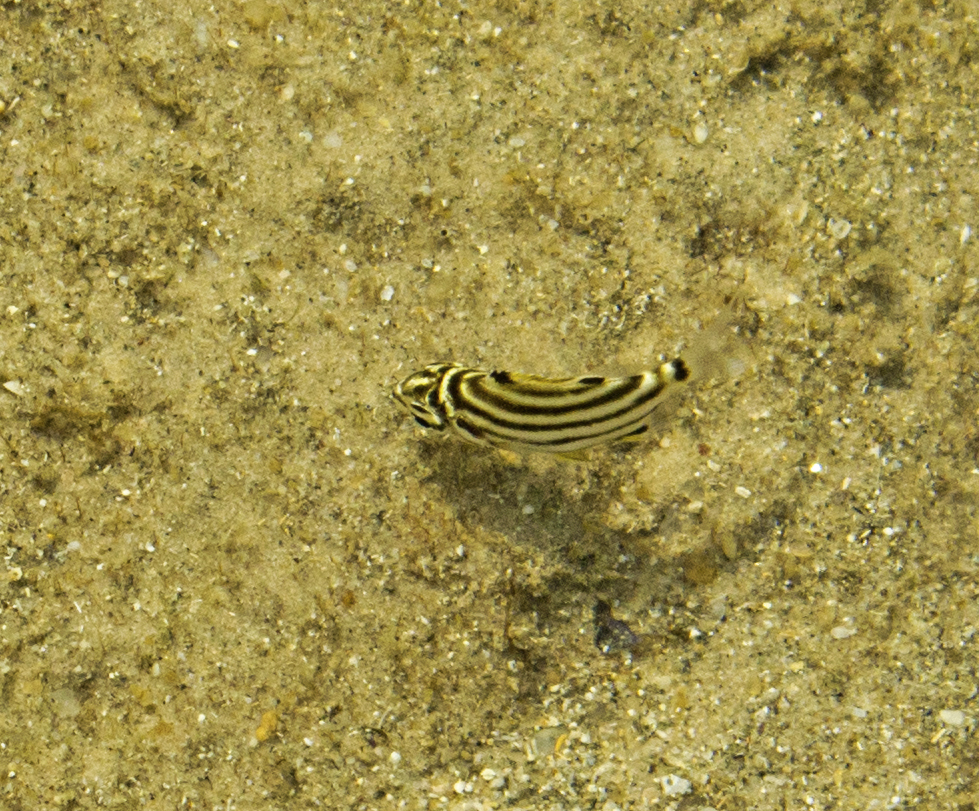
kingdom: Animalia
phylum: Chordata
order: Perciformes
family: Kyphosidae
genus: Microcanthus
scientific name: Microcanthus joyceae
